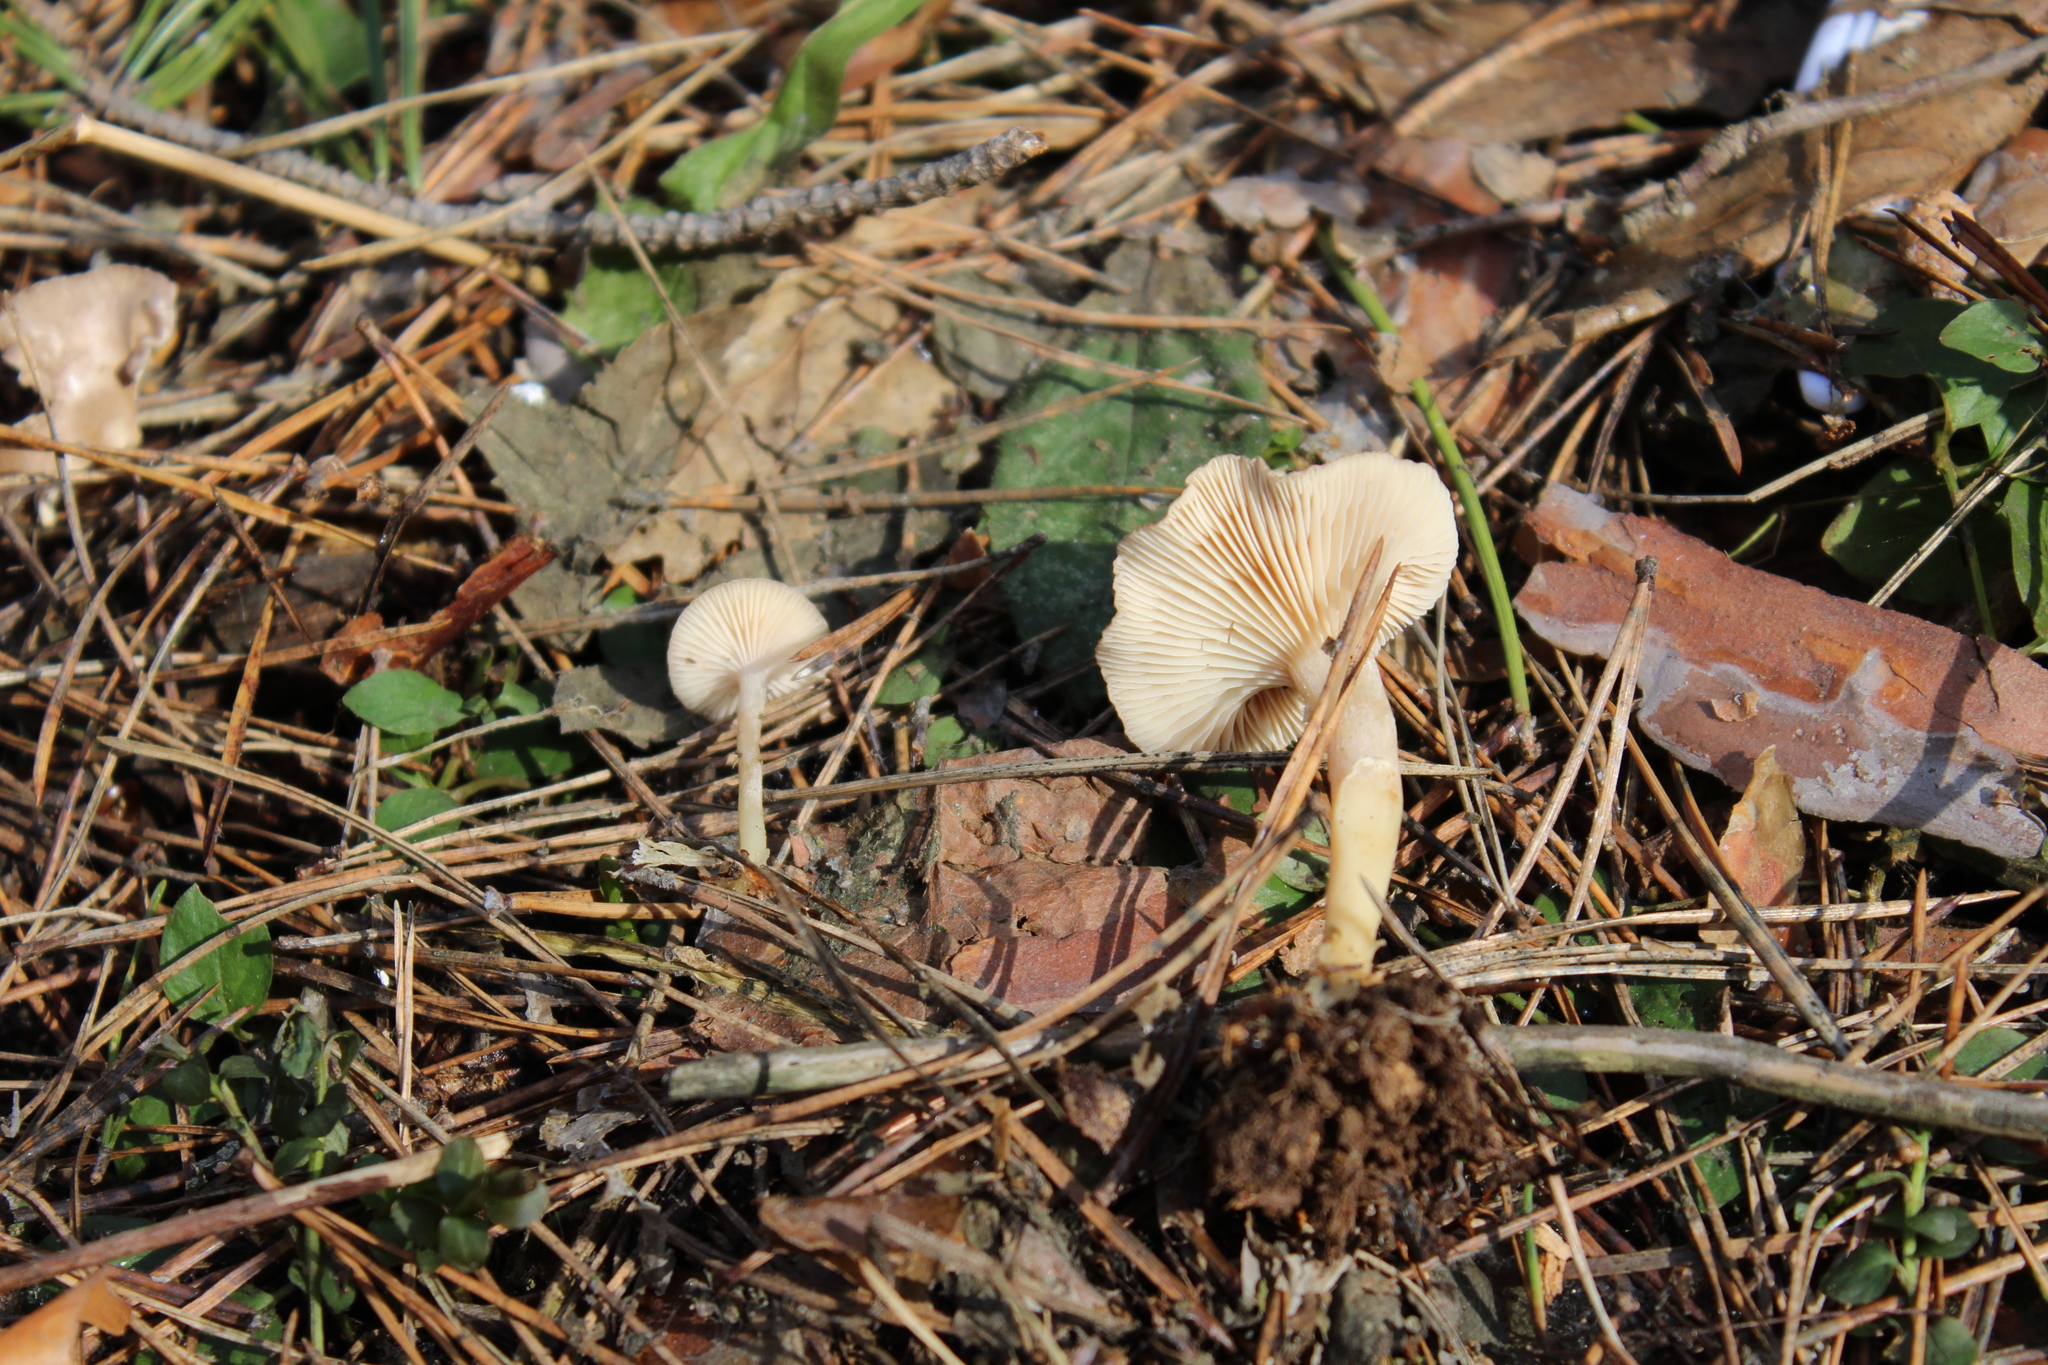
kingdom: Fungi
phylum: Basidiomycota
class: Agaricomycetes
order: Agaricales
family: Tricholomataceae
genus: Rhizocybe
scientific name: Rhizocybe pruinosa
